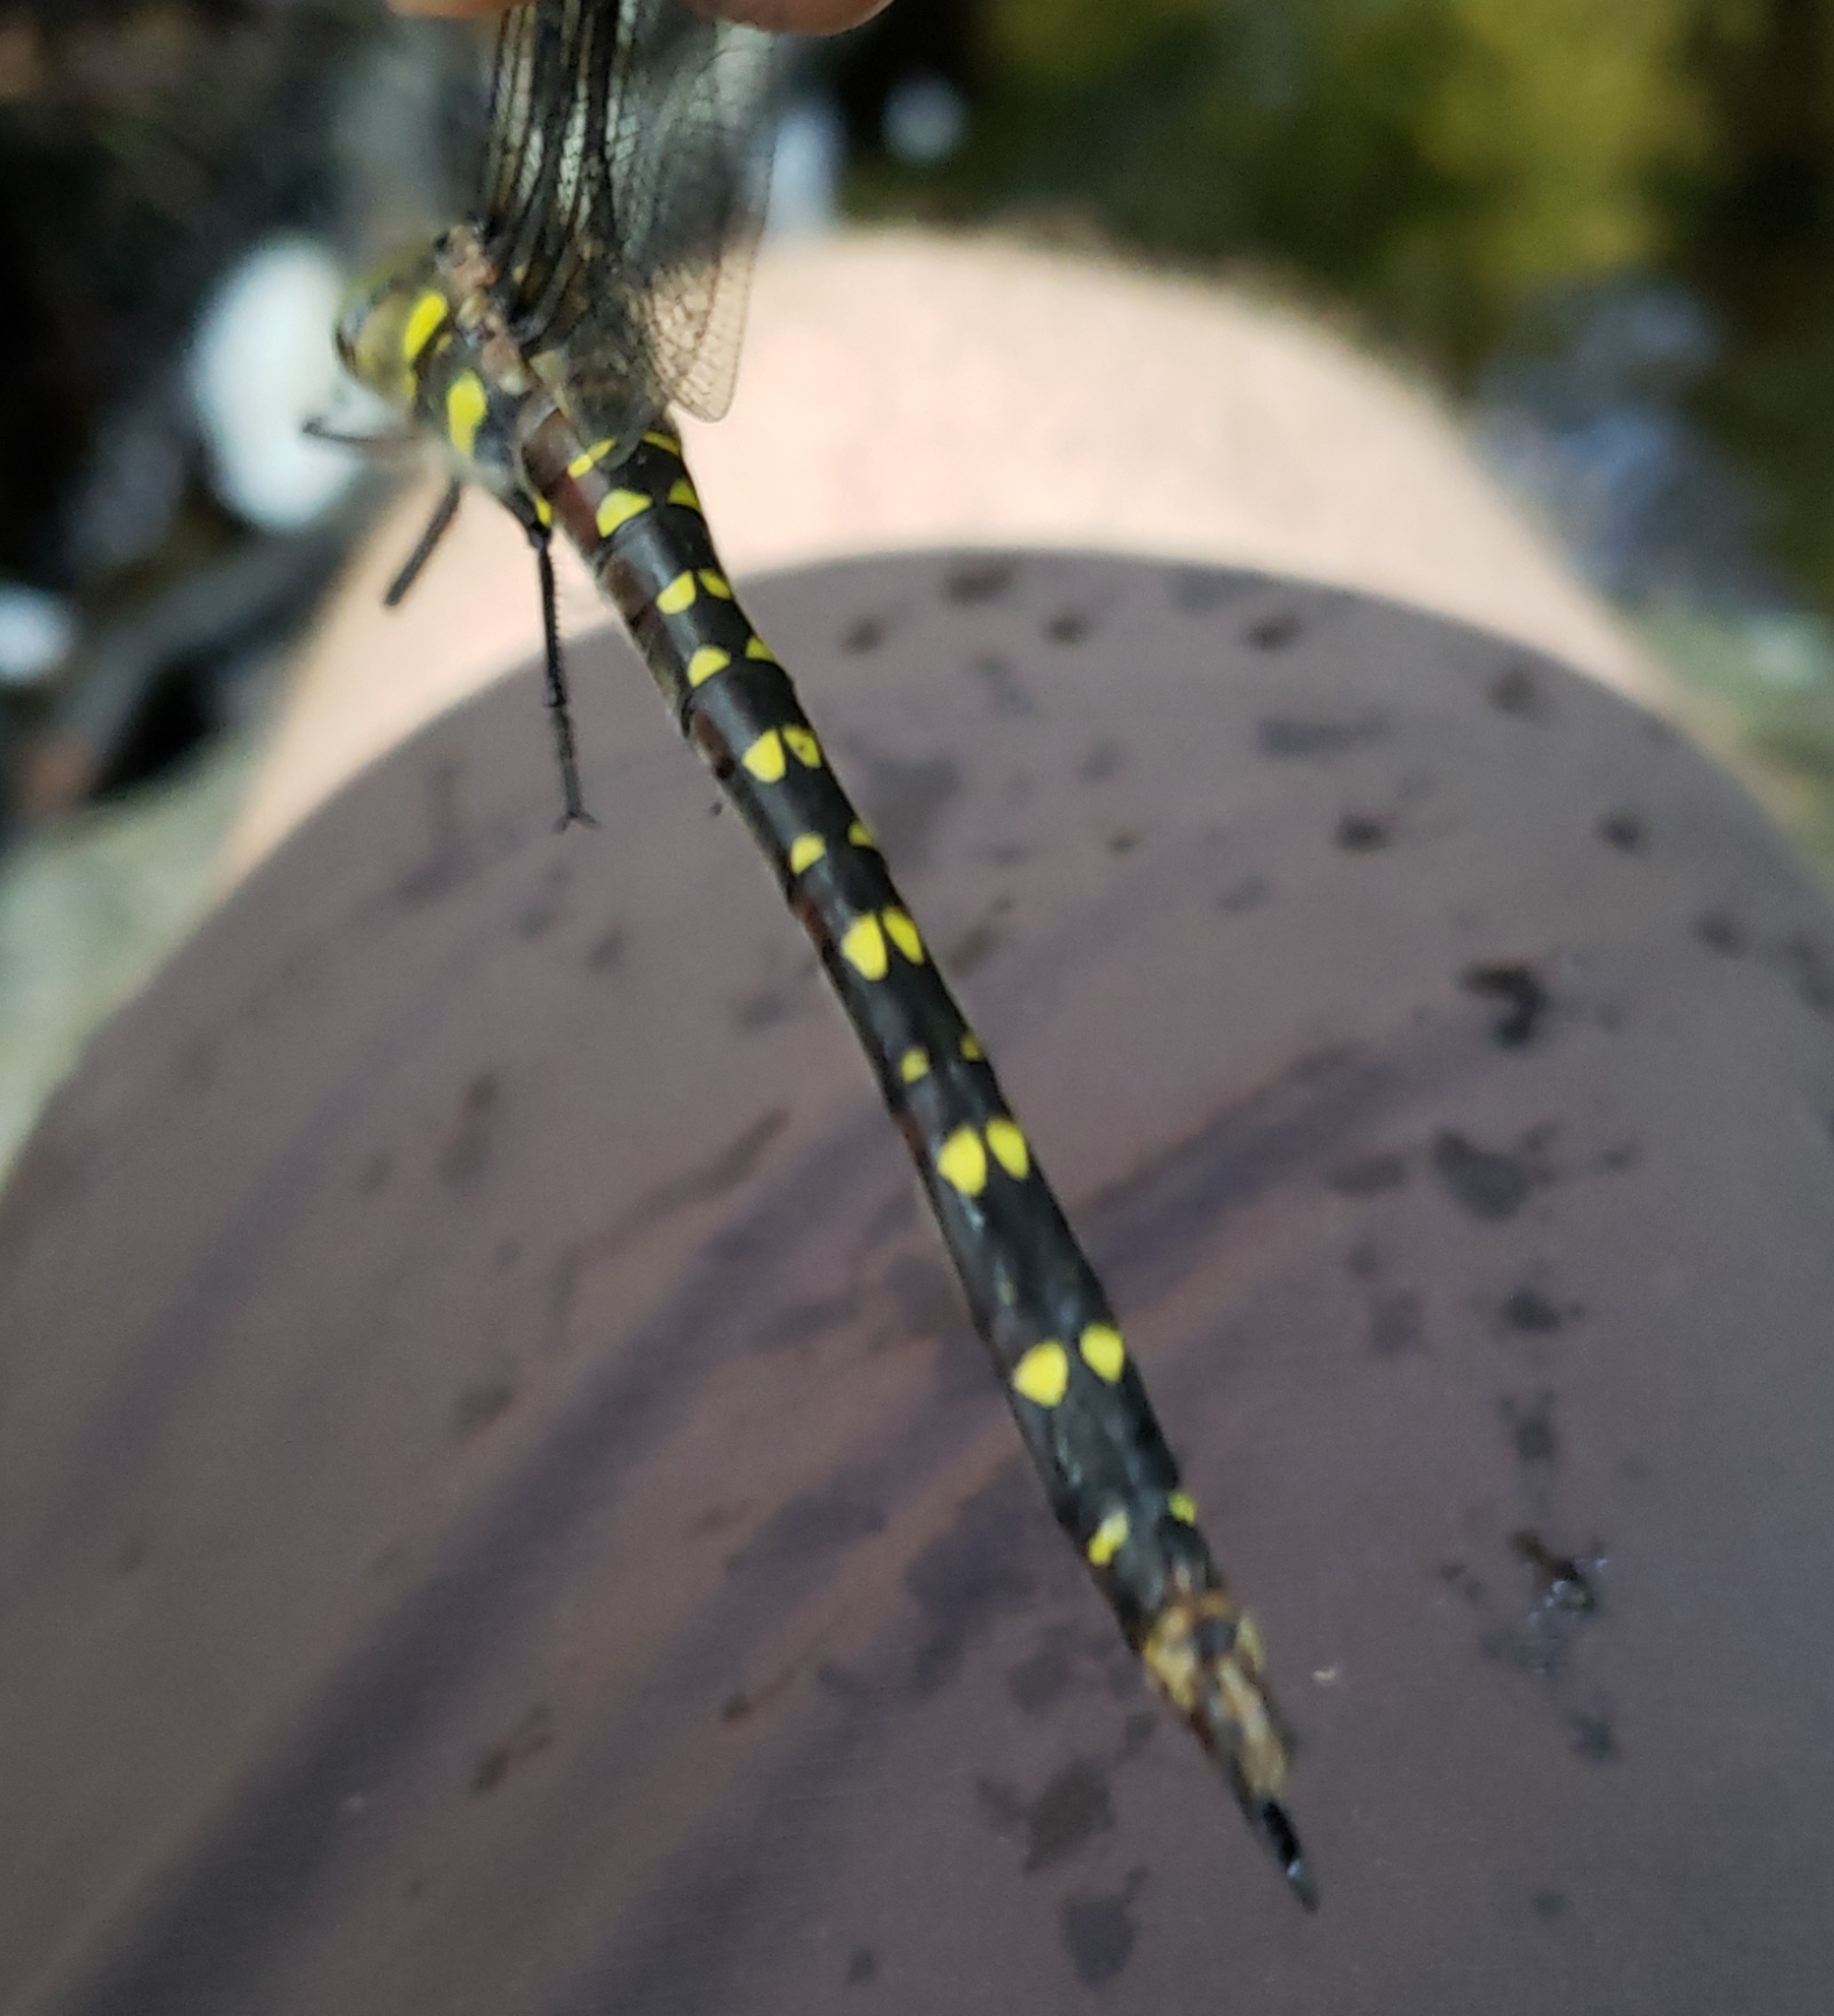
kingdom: Animalia
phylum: Arthropoda
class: Insecta
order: Odonata
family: Cordulegastridae
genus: Cordulegaster
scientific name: Cordulegaster maculata
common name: Twin-spotted spiketail
